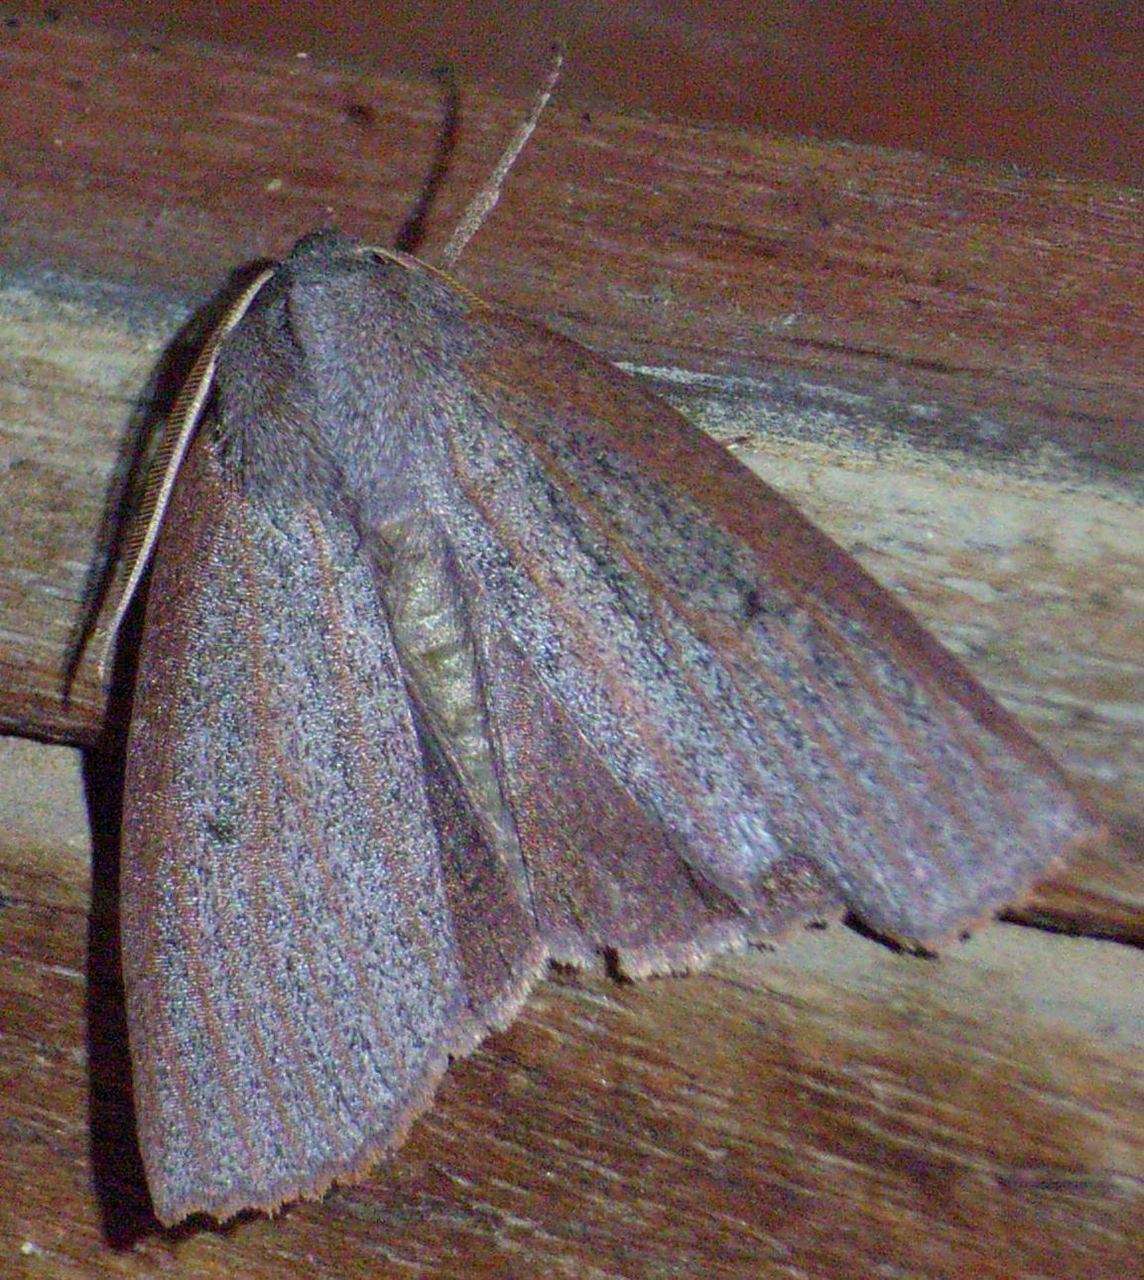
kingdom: Animalia
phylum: Arthropoda
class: Insecta
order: Lepidoptera
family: Geometridae
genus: Paralaea
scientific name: Paralaea porphyrinaria
